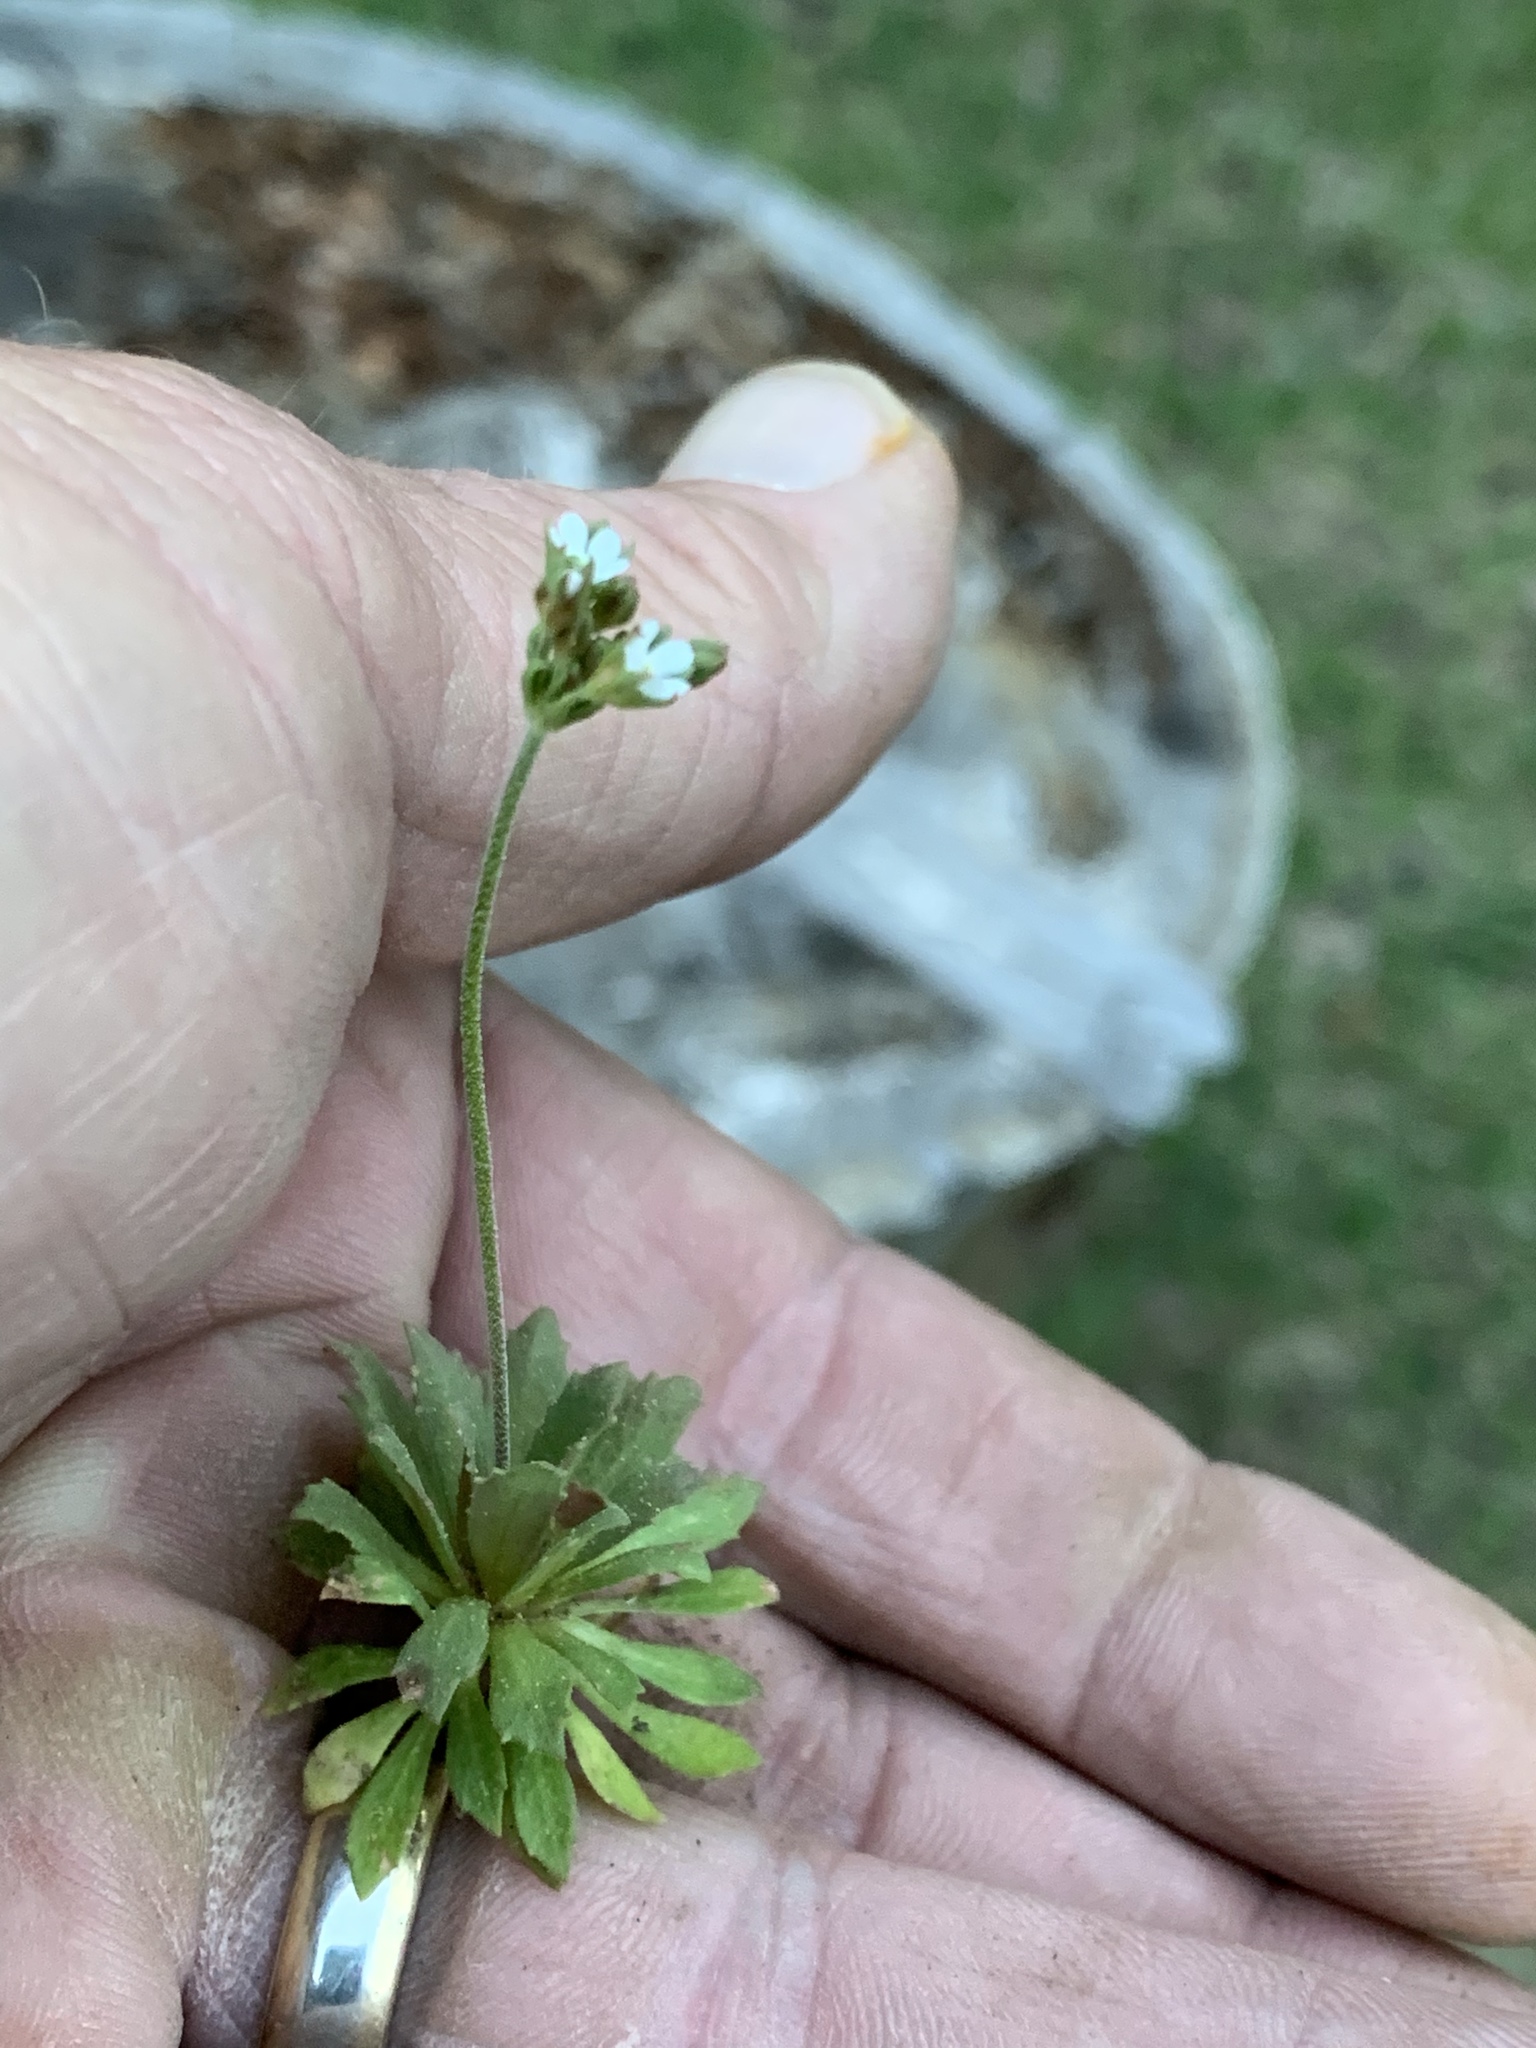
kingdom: Plantae
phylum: Tracheophyta
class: Magnoliopsida
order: Ericales
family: Primulaceae
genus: Androsace
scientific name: Androsace septentrionalis
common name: Hairy northern fairy-candelabra
